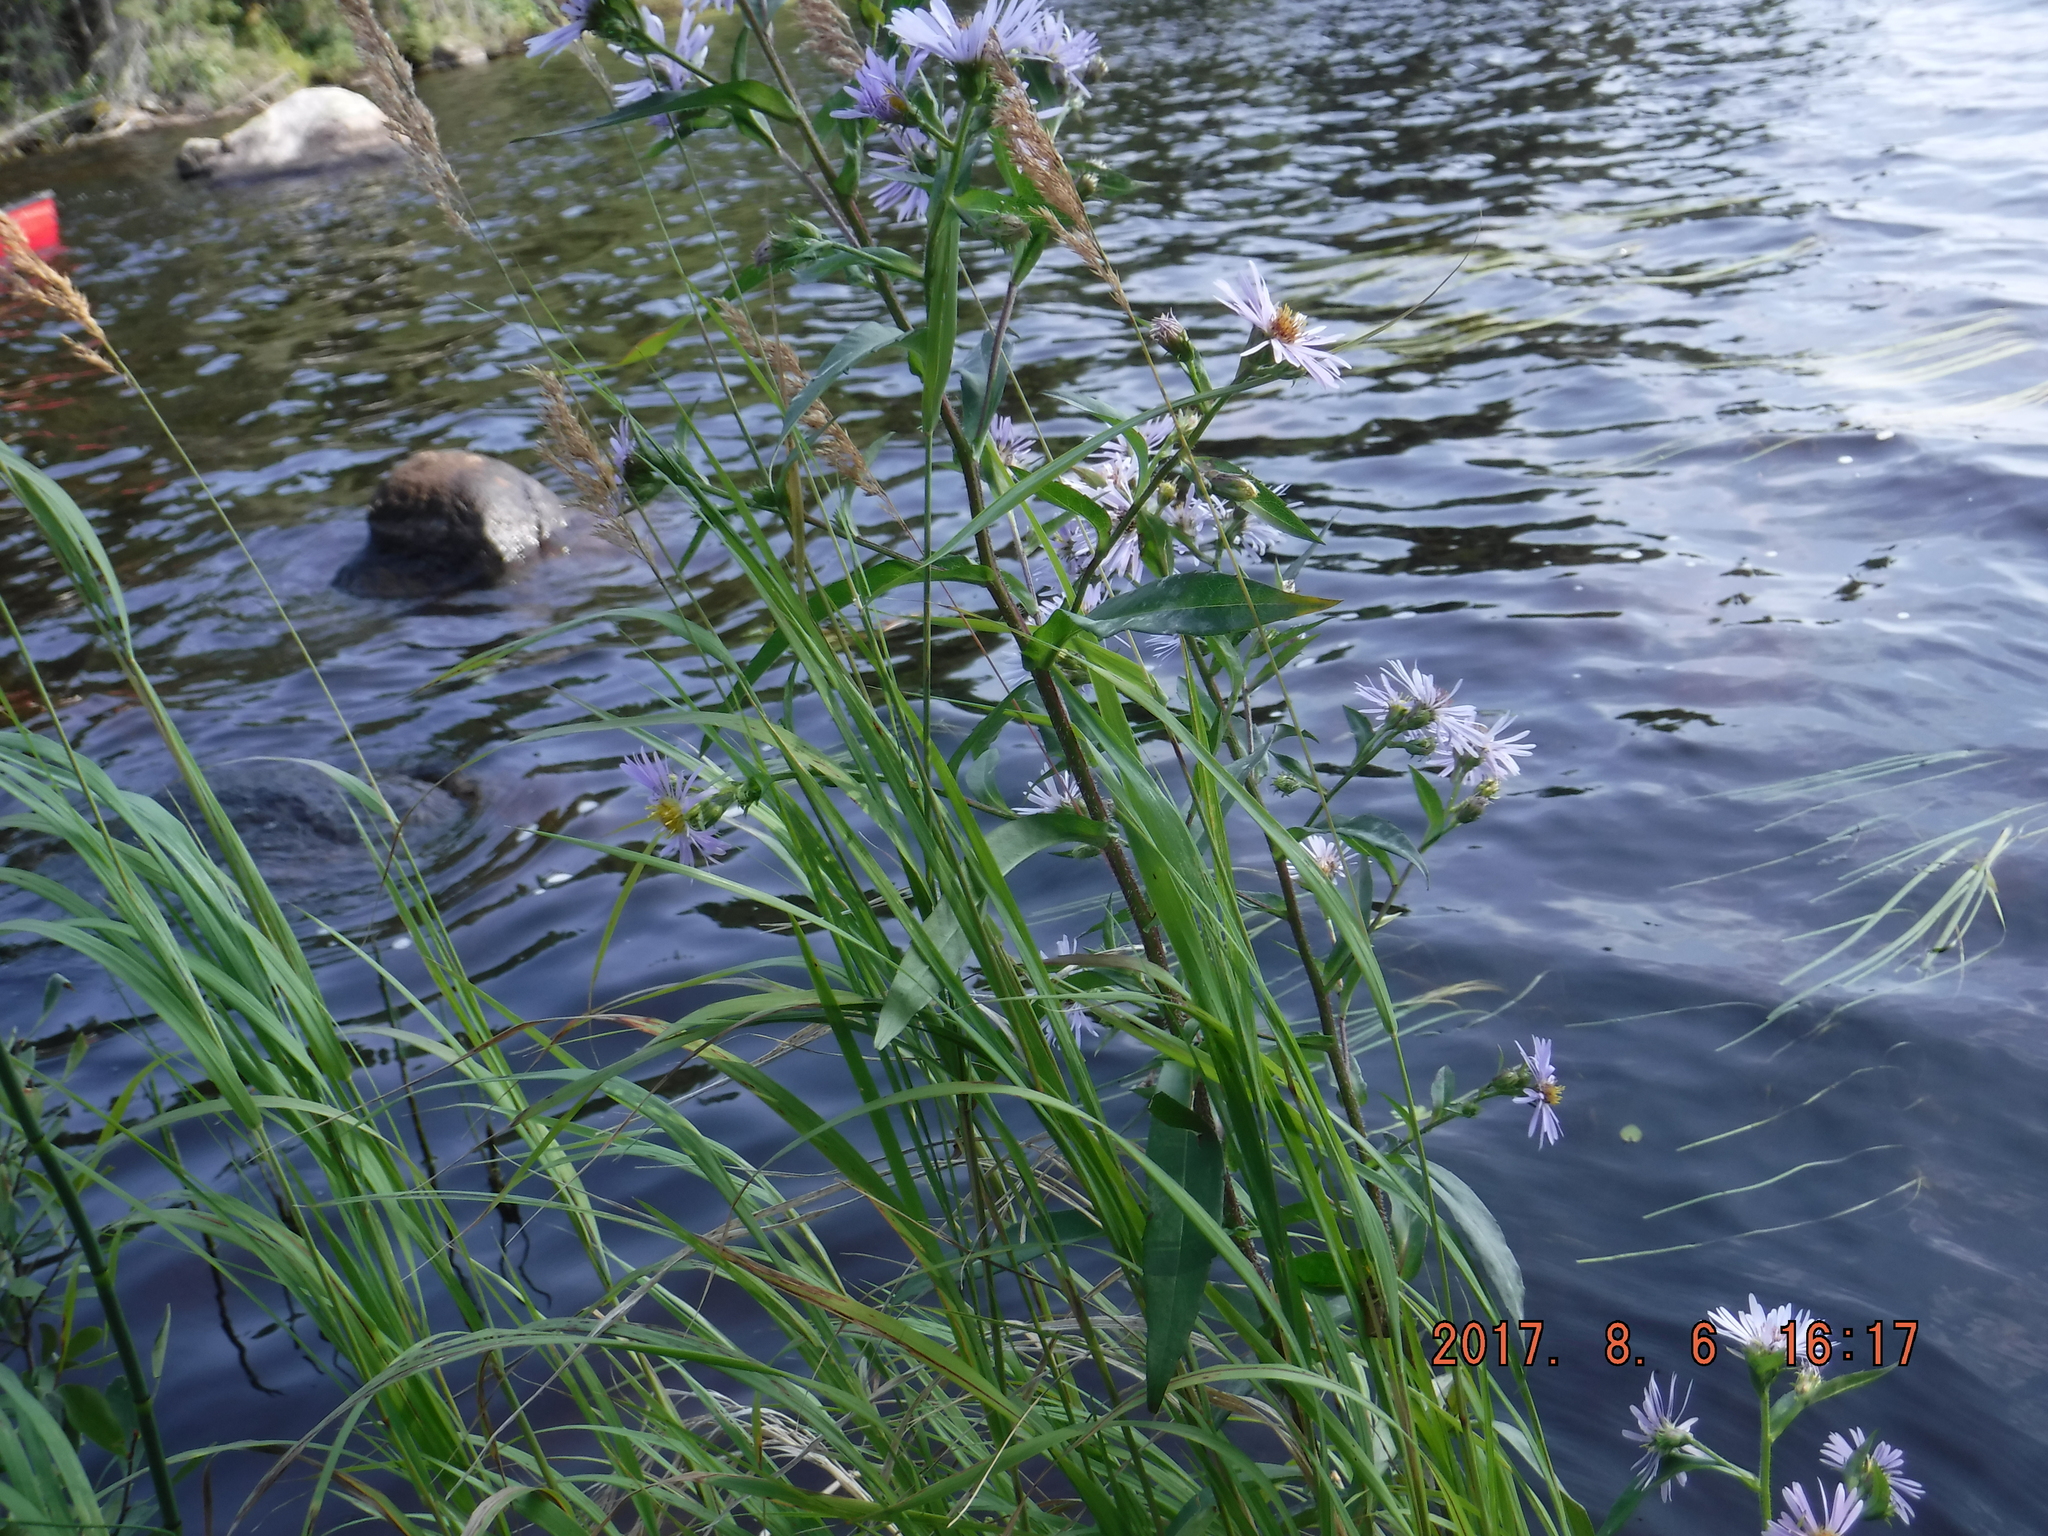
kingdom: Plantae
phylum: Tracheophyta
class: Magnoliopsida
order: Asterales
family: Asteraceae
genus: Symphyotrichum
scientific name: Symphyotrichum puniceum
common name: Bog aster
